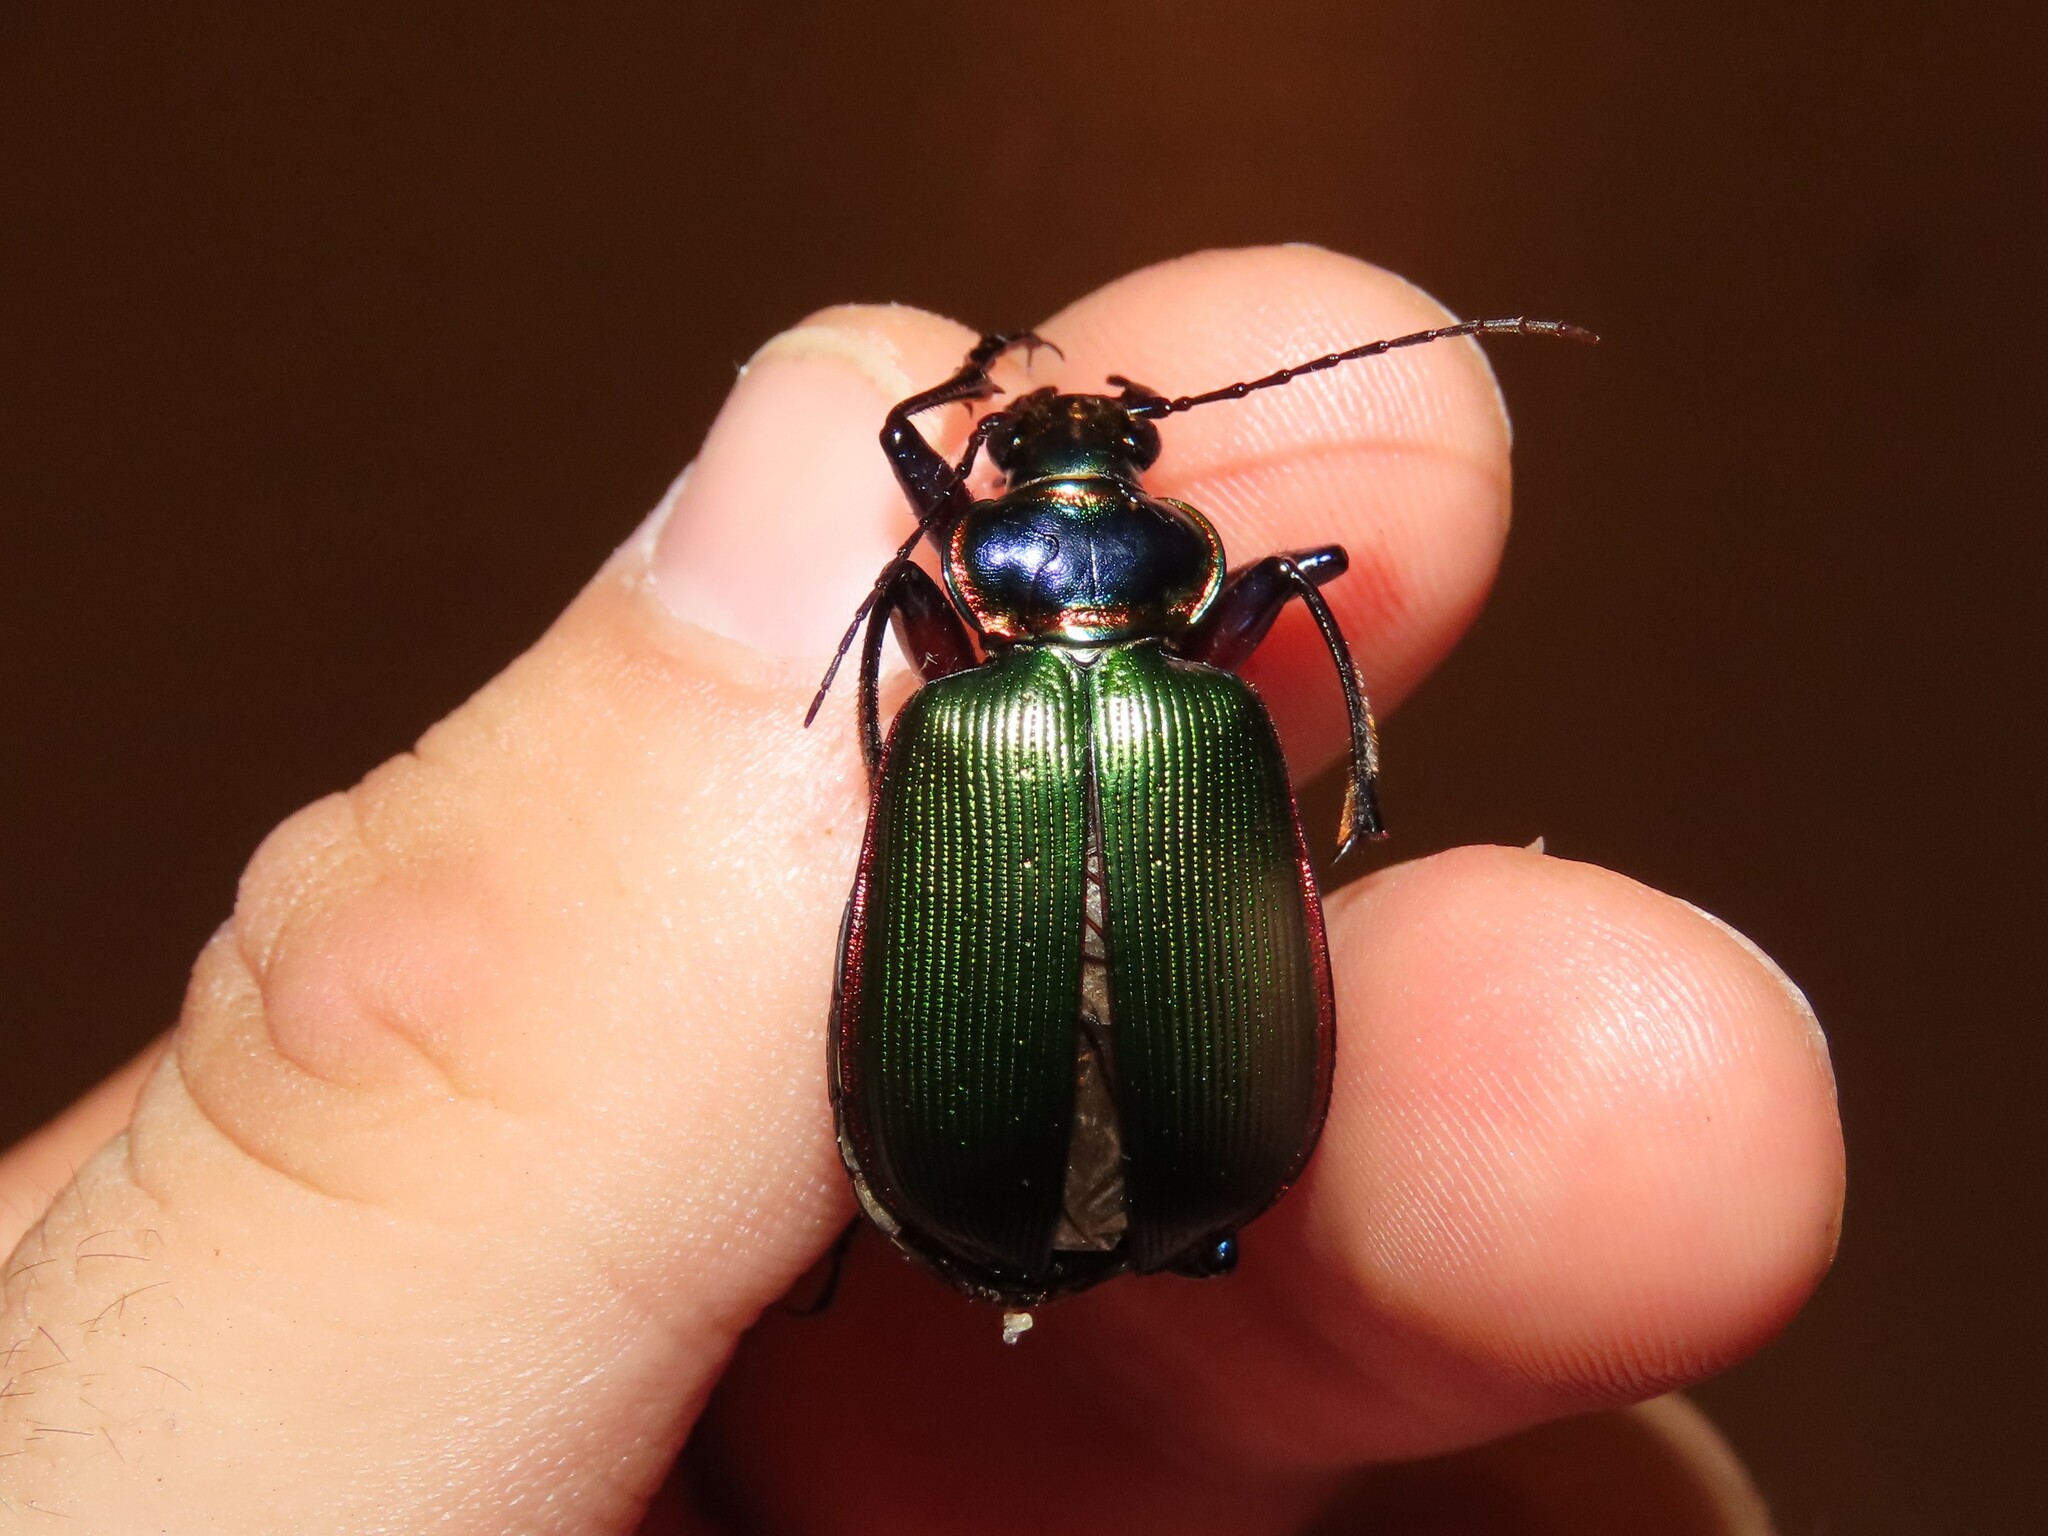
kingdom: Animalia
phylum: Arthropoda
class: Insecta
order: Coleoptera
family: Carabidae
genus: Calosoma
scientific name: Calosoma scrutator
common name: Fiery searcher beetle
